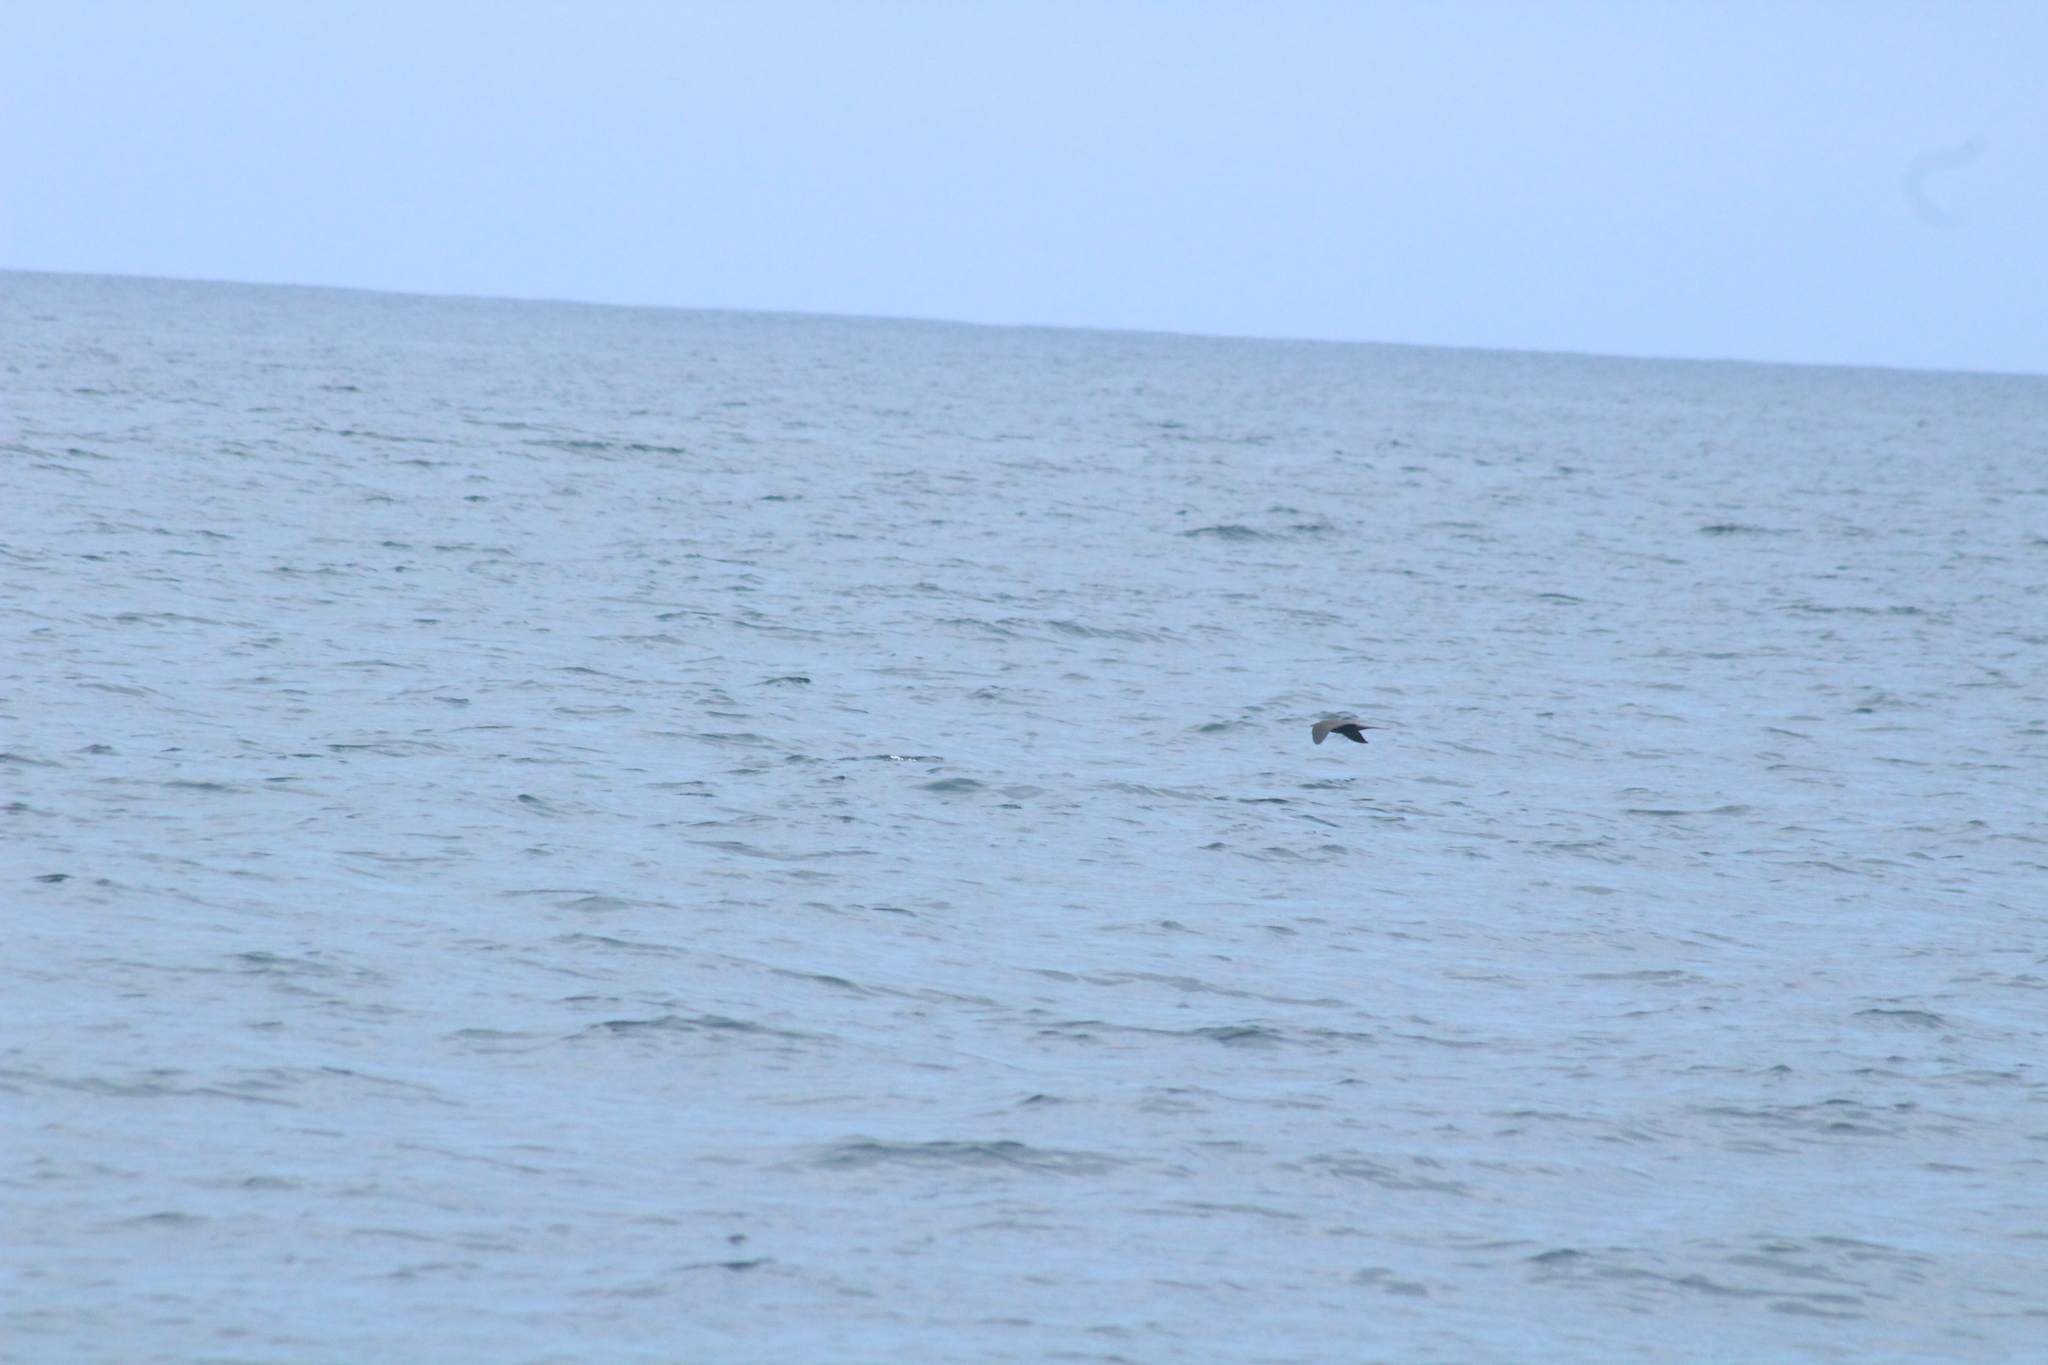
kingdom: Animalia
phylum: Chordata
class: Aves
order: Charadriiformes
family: Laridae
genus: Anous
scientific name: Anous stolidus
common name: Brown noddy
